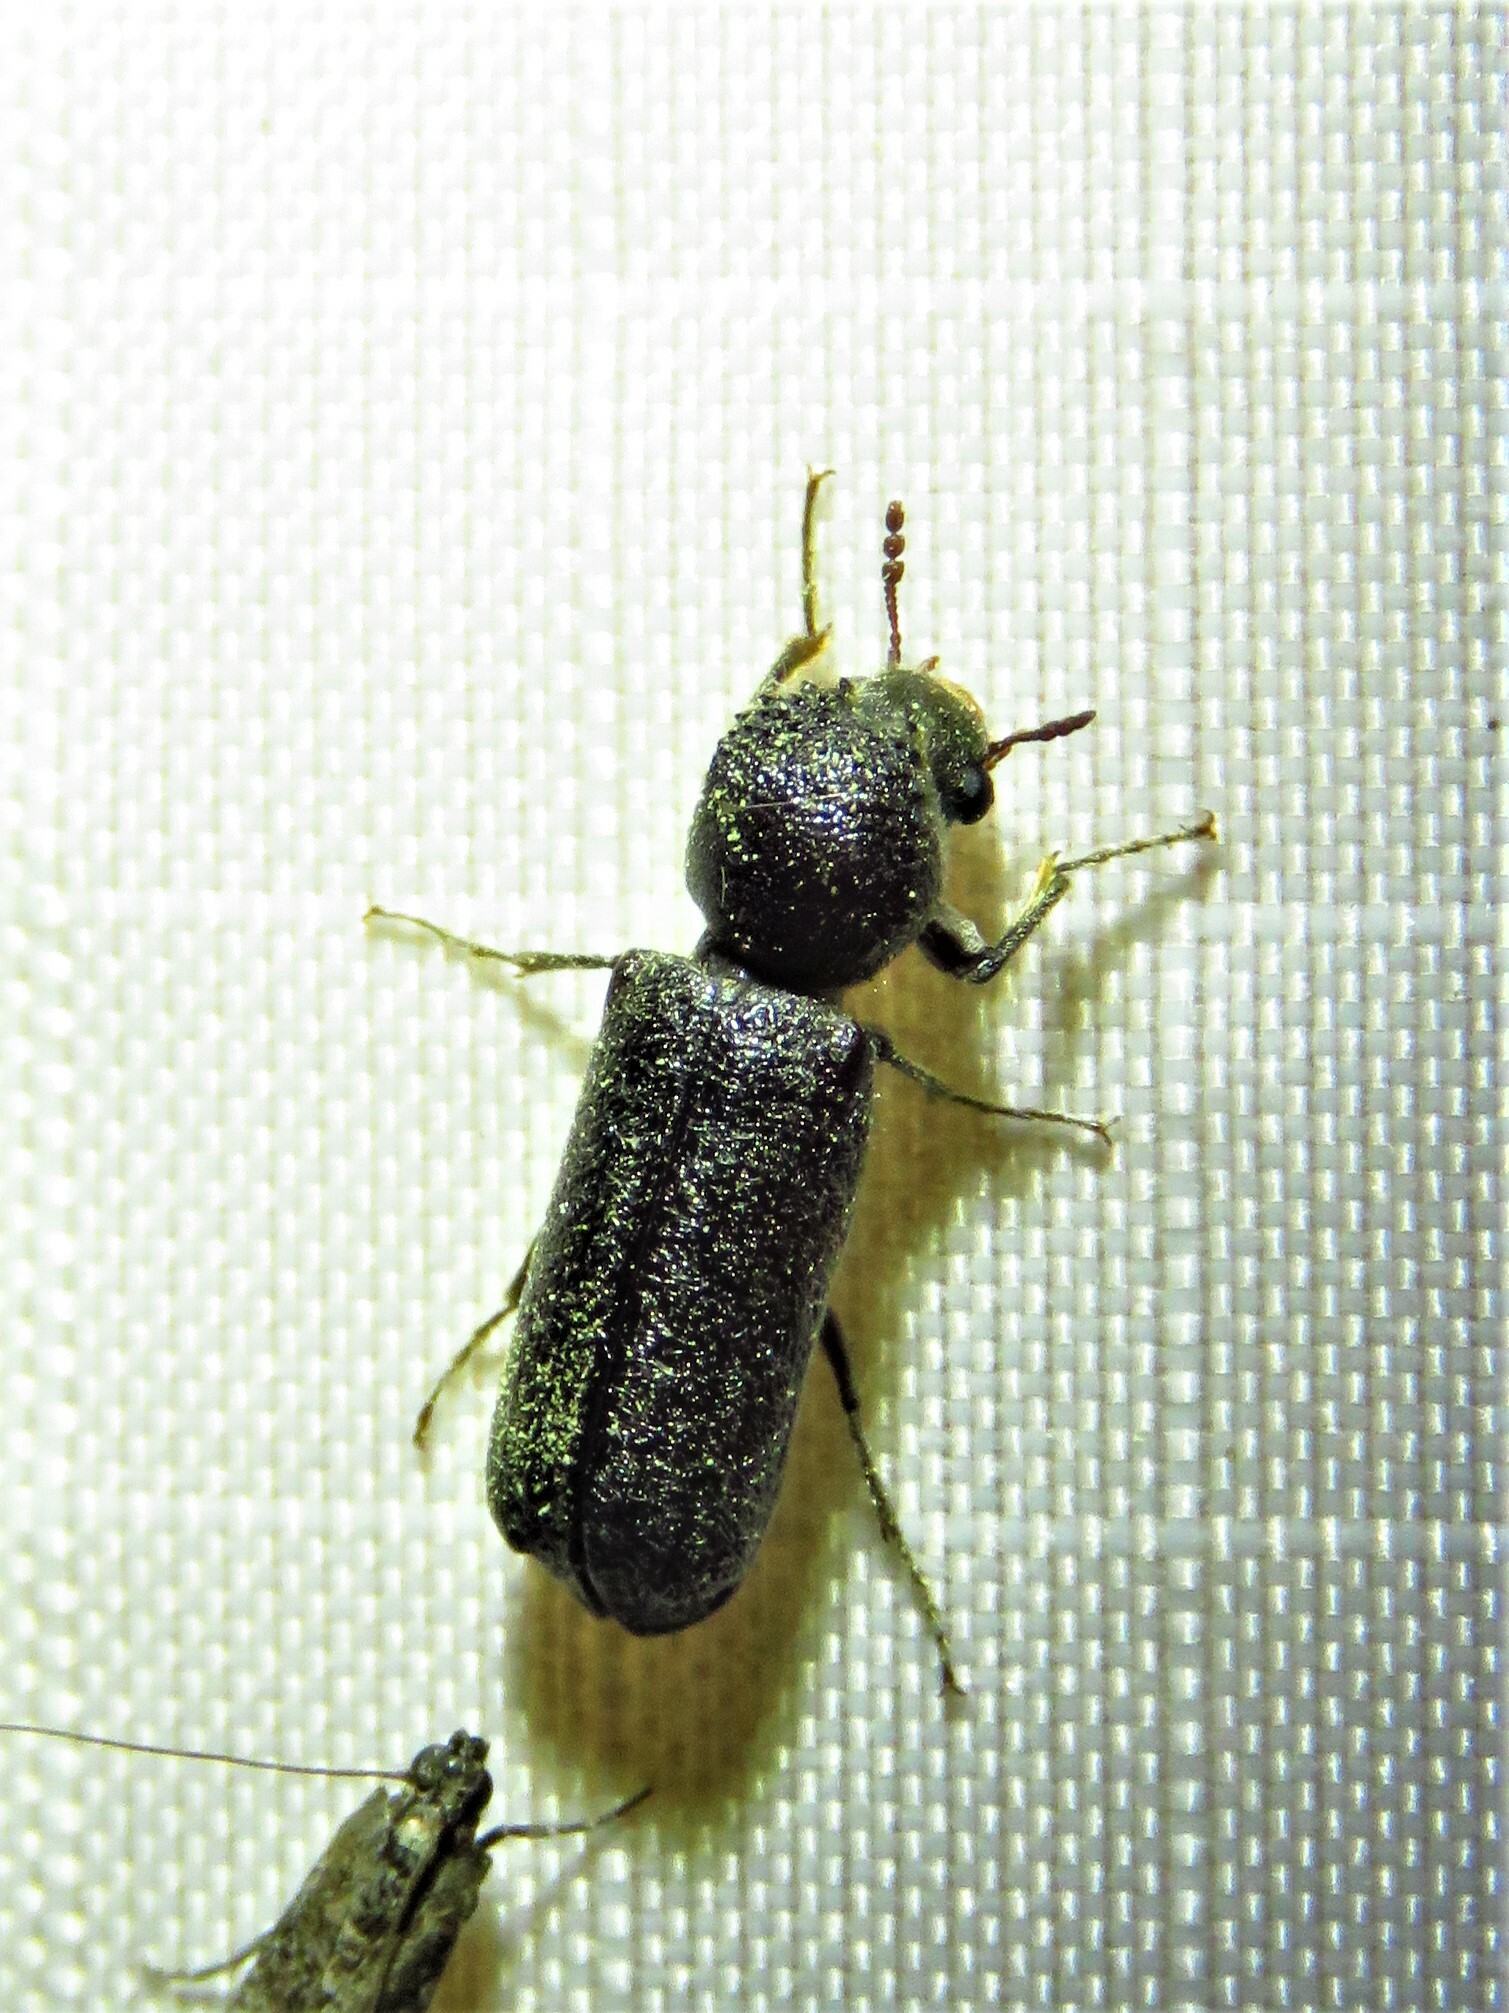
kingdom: Animalia
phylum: Arthropoda
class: Insecta
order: Coleoptera
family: Bostrichidae
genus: Amphicerus
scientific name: Amphicerus bicaudatus
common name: Apple twig borer
